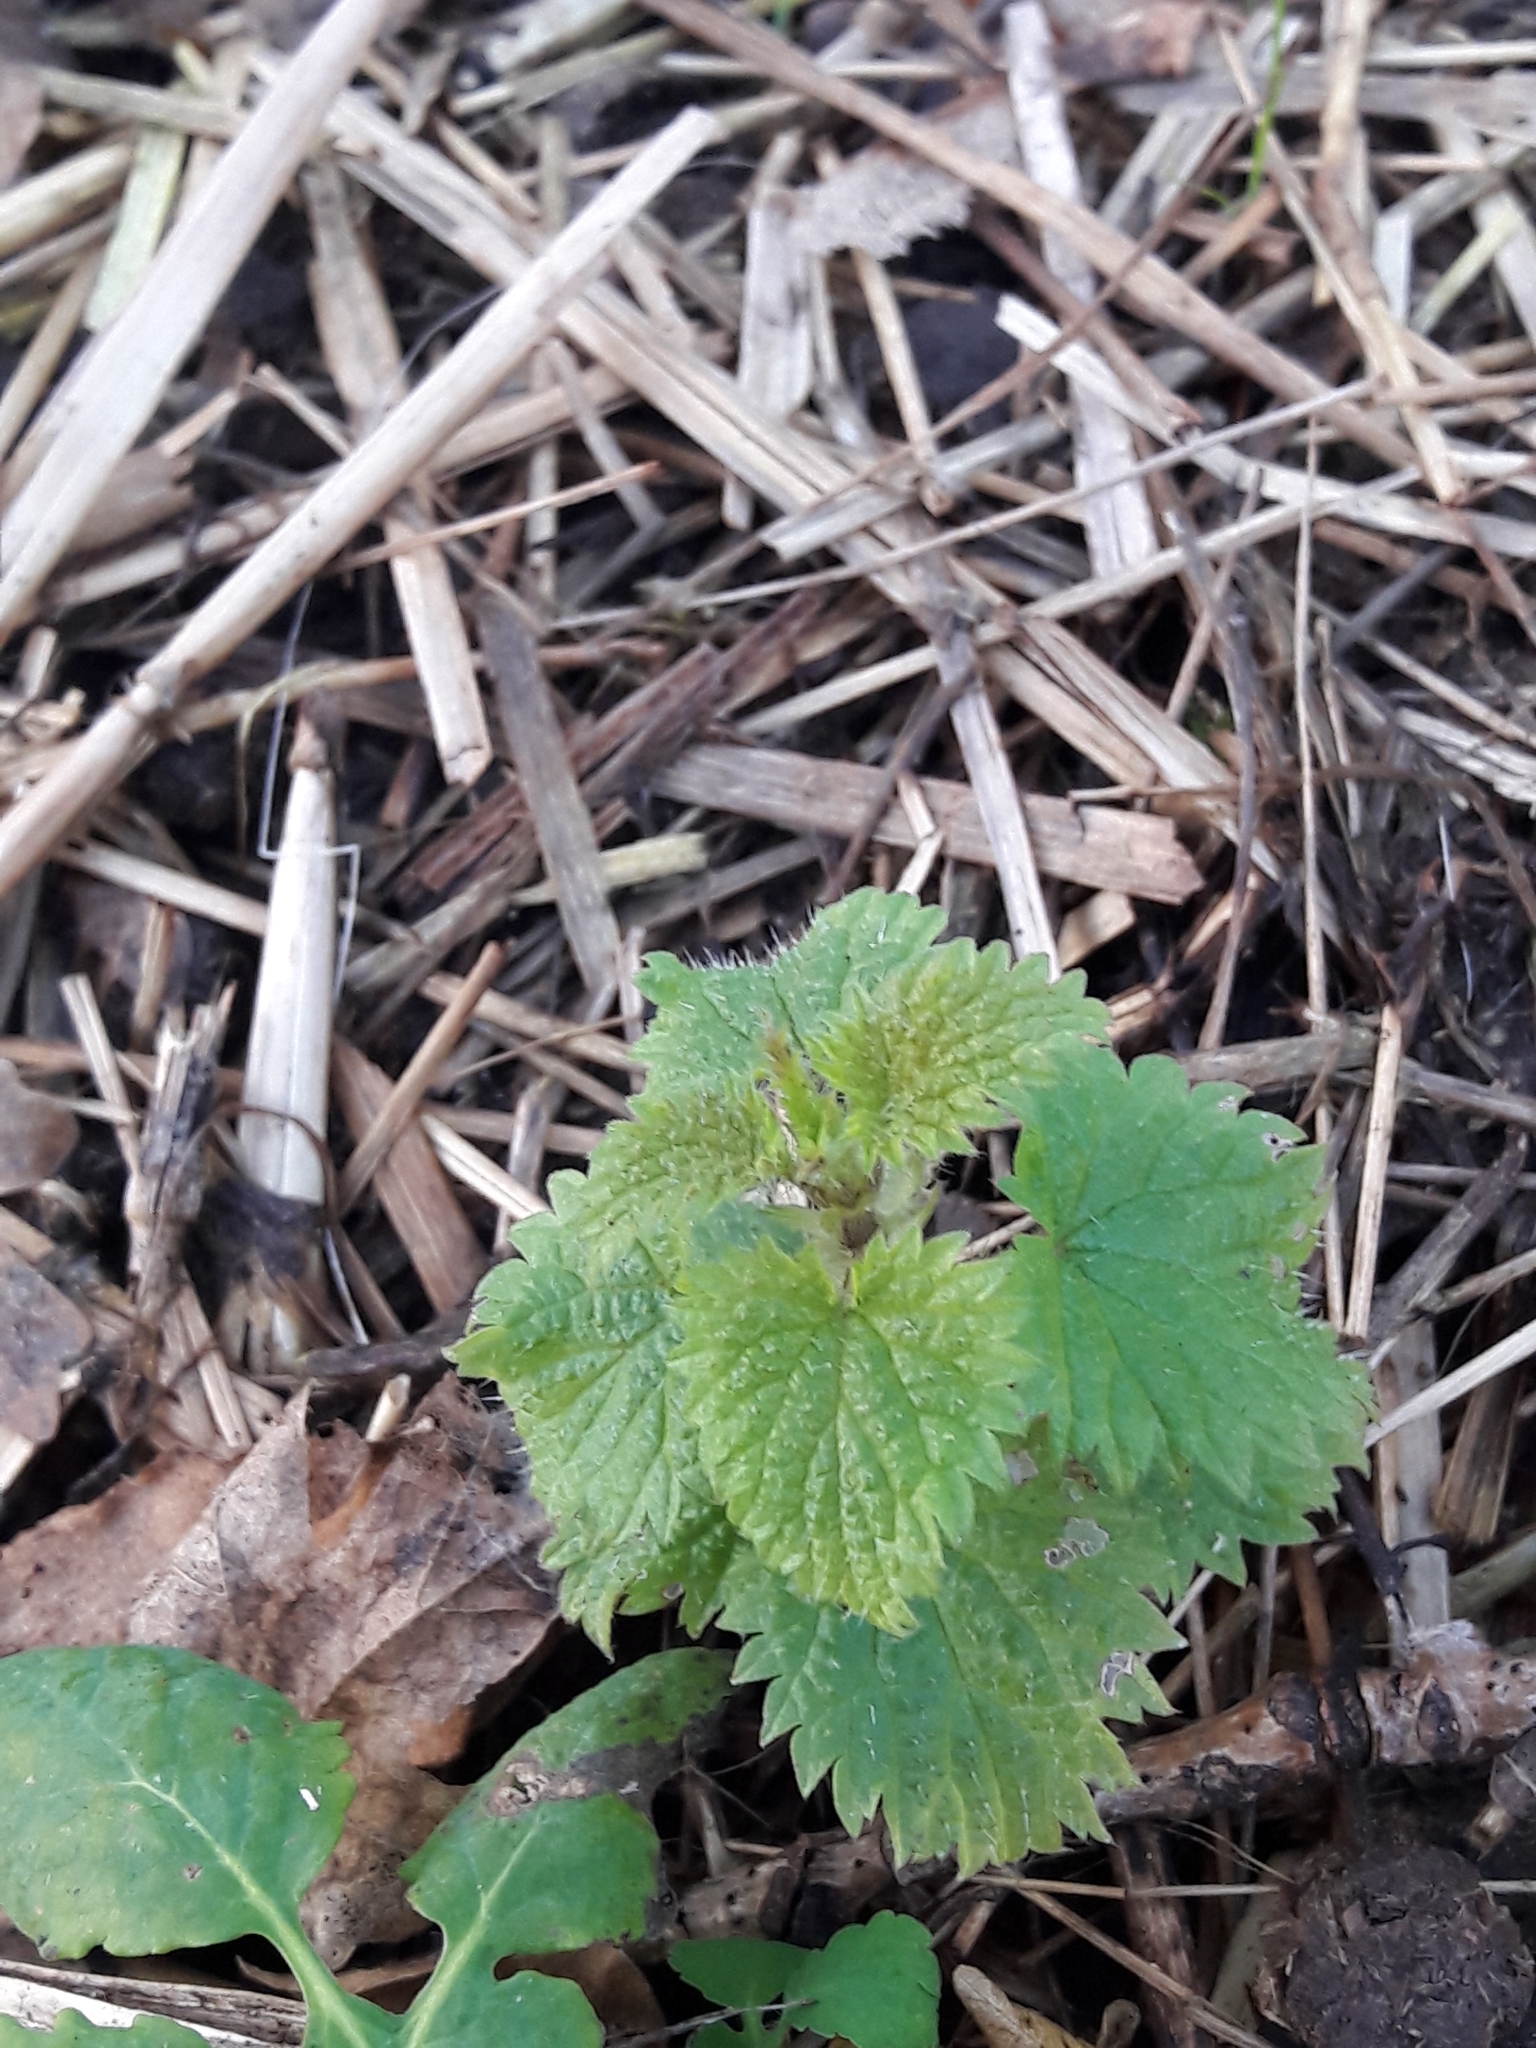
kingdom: Plantae
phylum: Tracheophyta
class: Magnoliopsida
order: Rosales
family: Urticaceae
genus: Urtica
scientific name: Urtica dioica
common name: Common nettle
